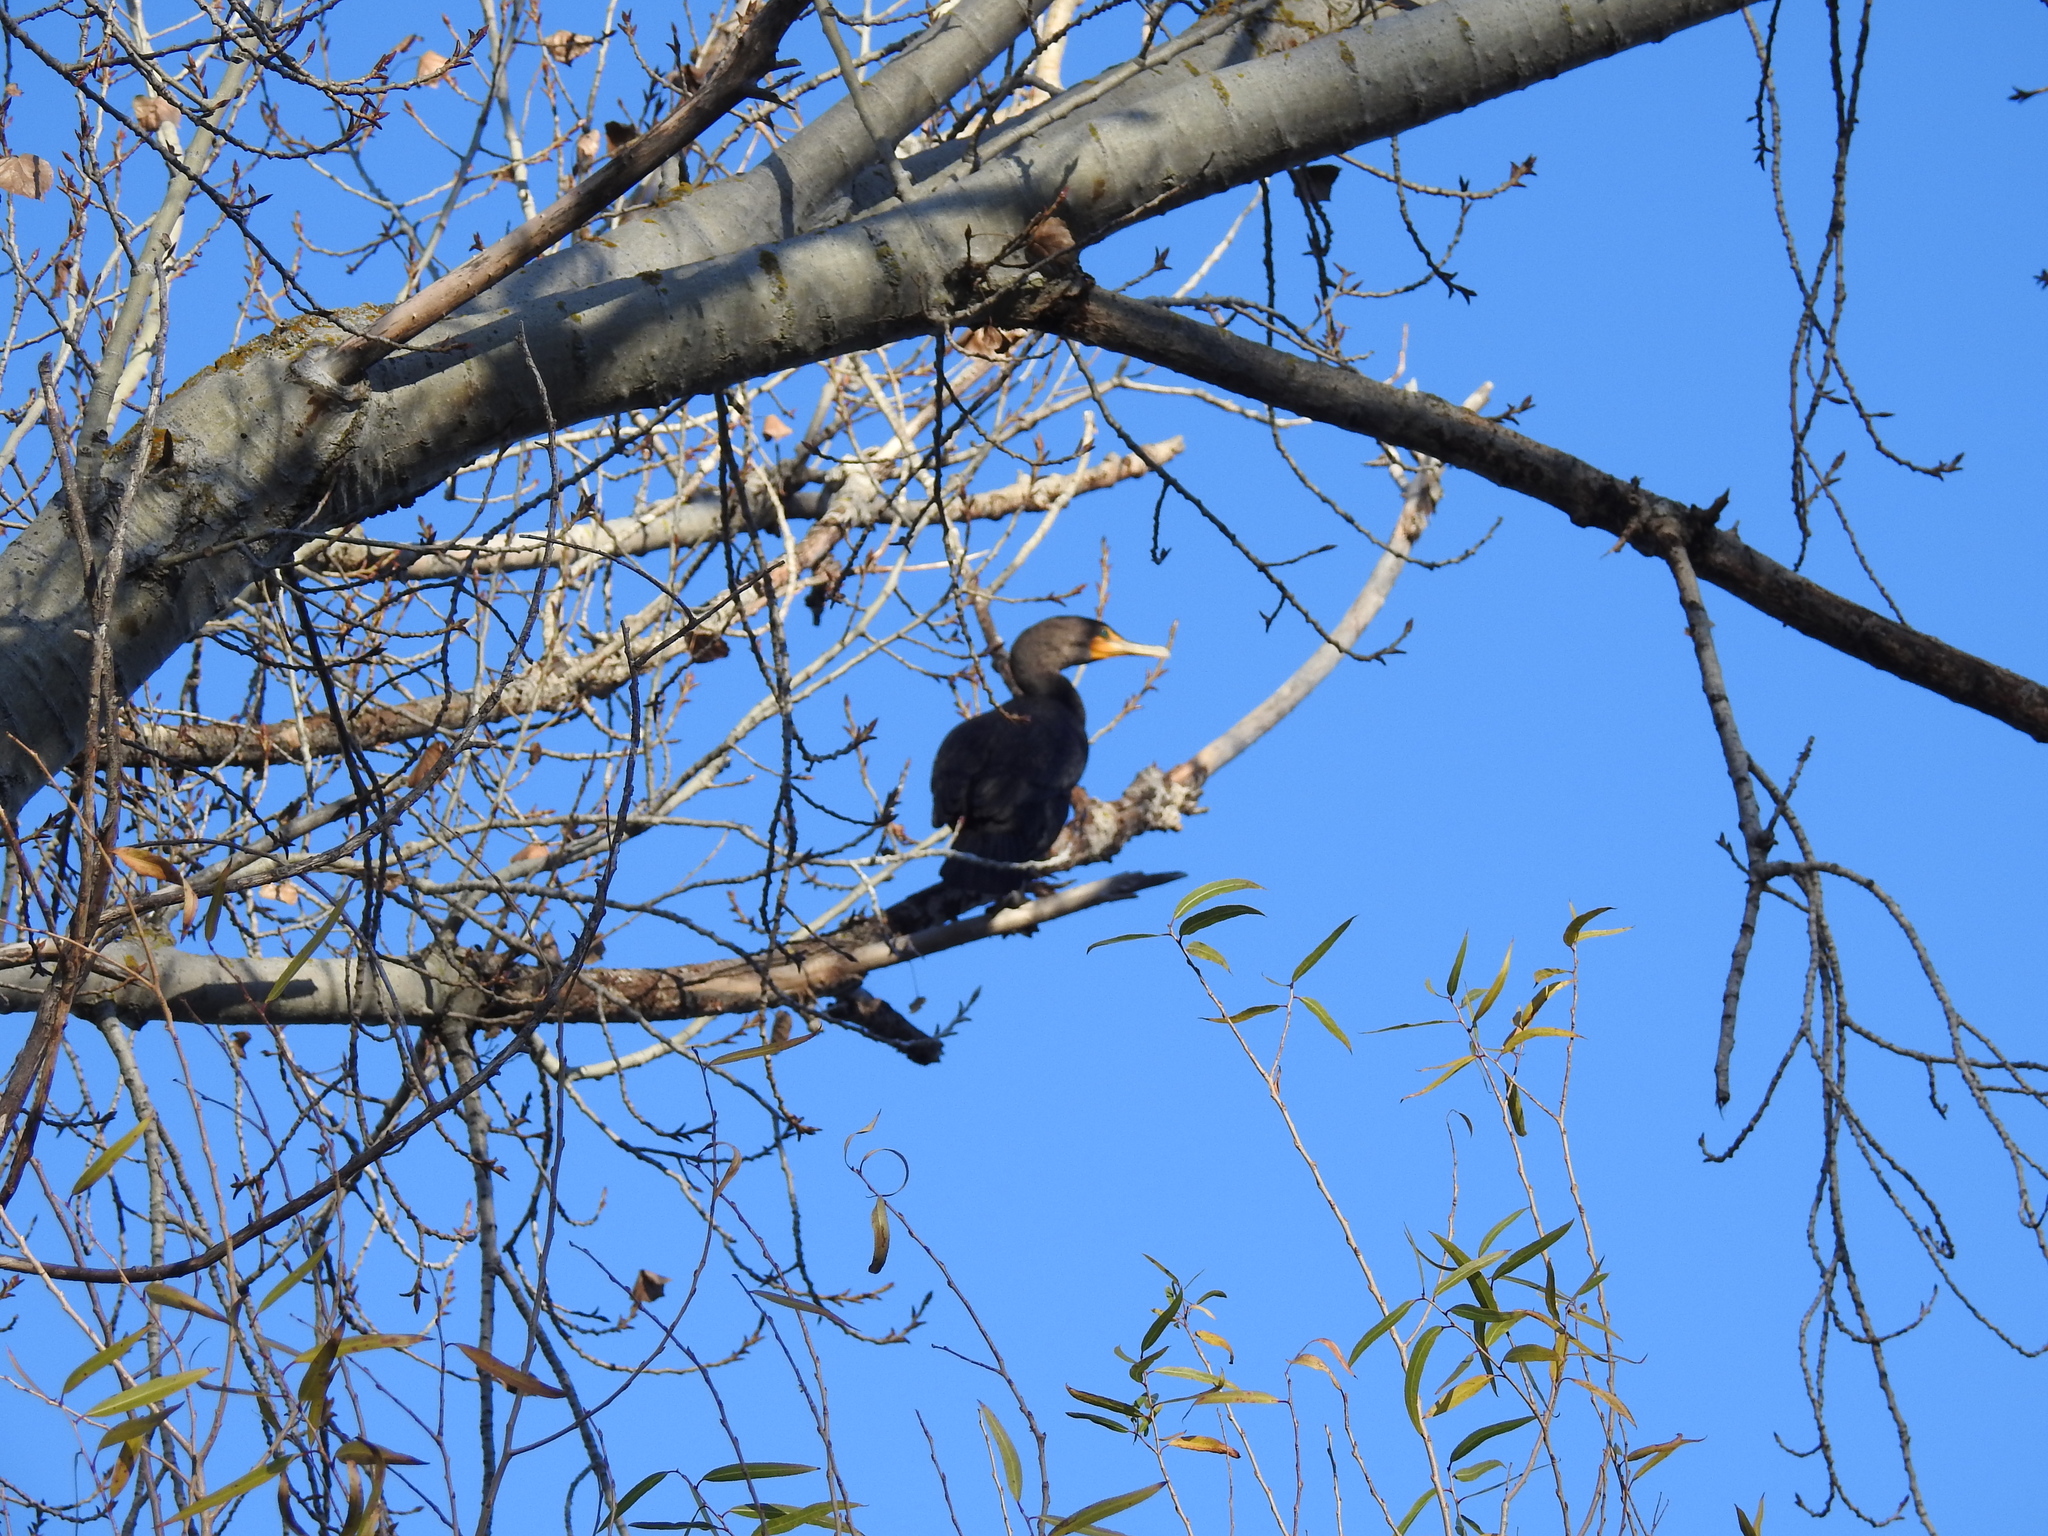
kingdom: Animalia
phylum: Chordata
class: Aves
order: Suliformes
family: Phalacrocoracidae
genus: Phalacrocorax
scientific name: Phalacrocorax auritus
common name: Double-crested cormorant
